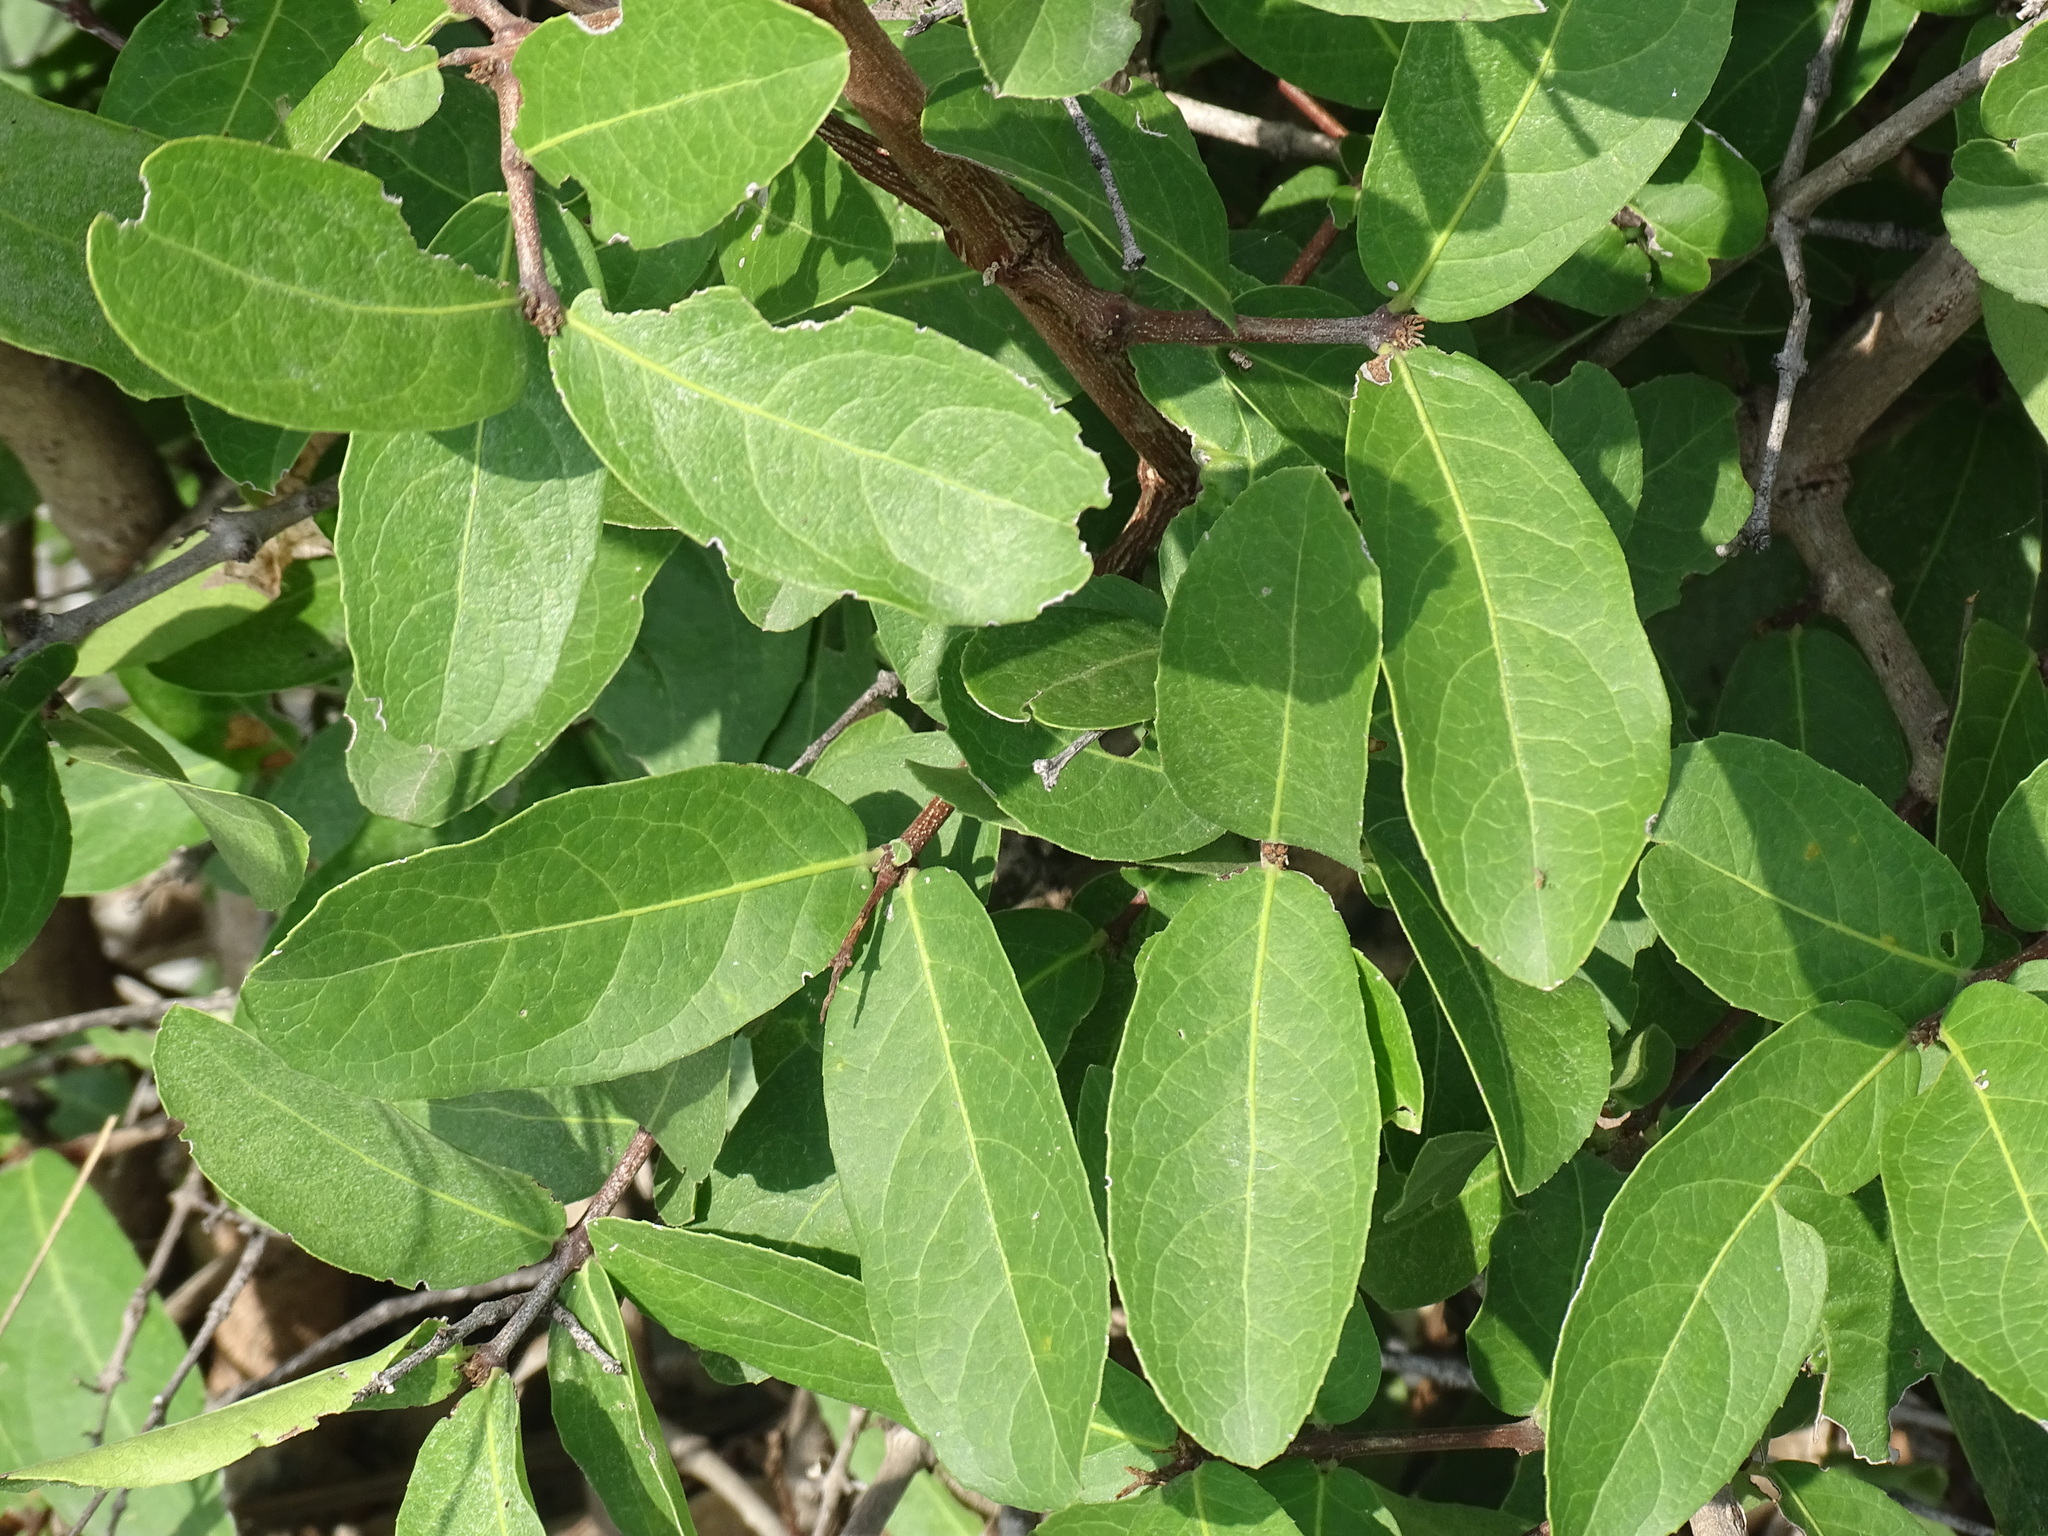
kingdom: Plantae
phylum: Tracheophyta
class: Magnoliopsida
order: Celastrales
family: Celastraceae
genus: Semialarium
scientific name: Semialarium mexicanum
